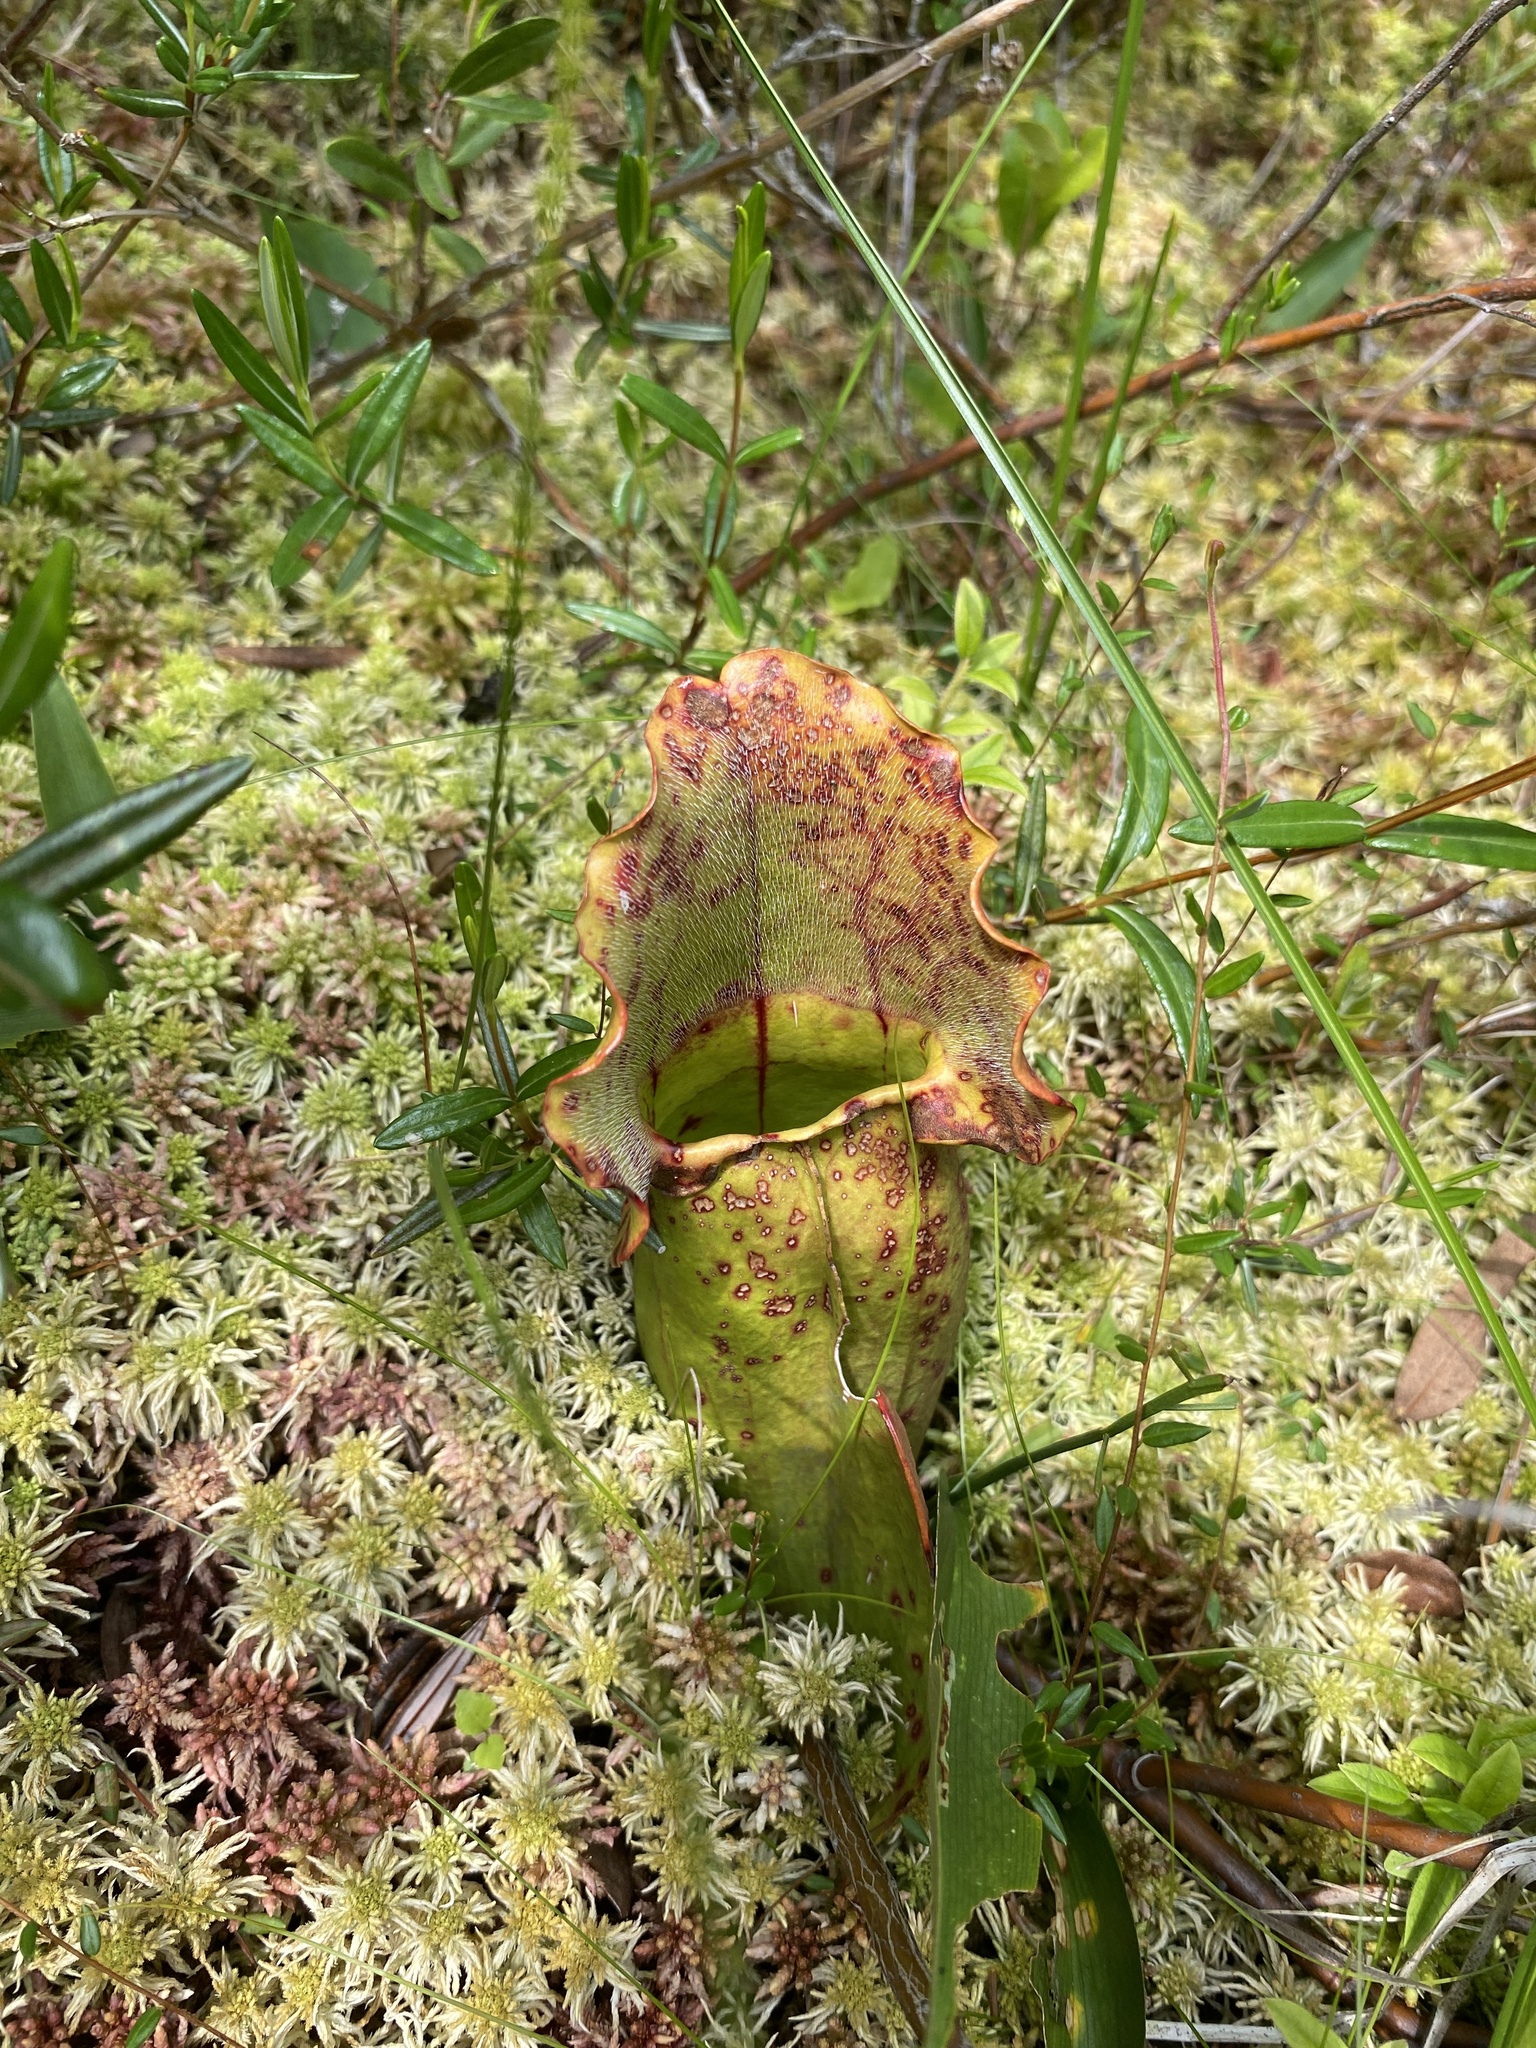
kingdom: Plantae
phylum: Tracheophyta
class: Magnoliopsida
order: Ericales
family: Sarraceniaceae
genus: Sarracenia
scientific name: Sarracenia purpurea
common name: Pitcherplant
